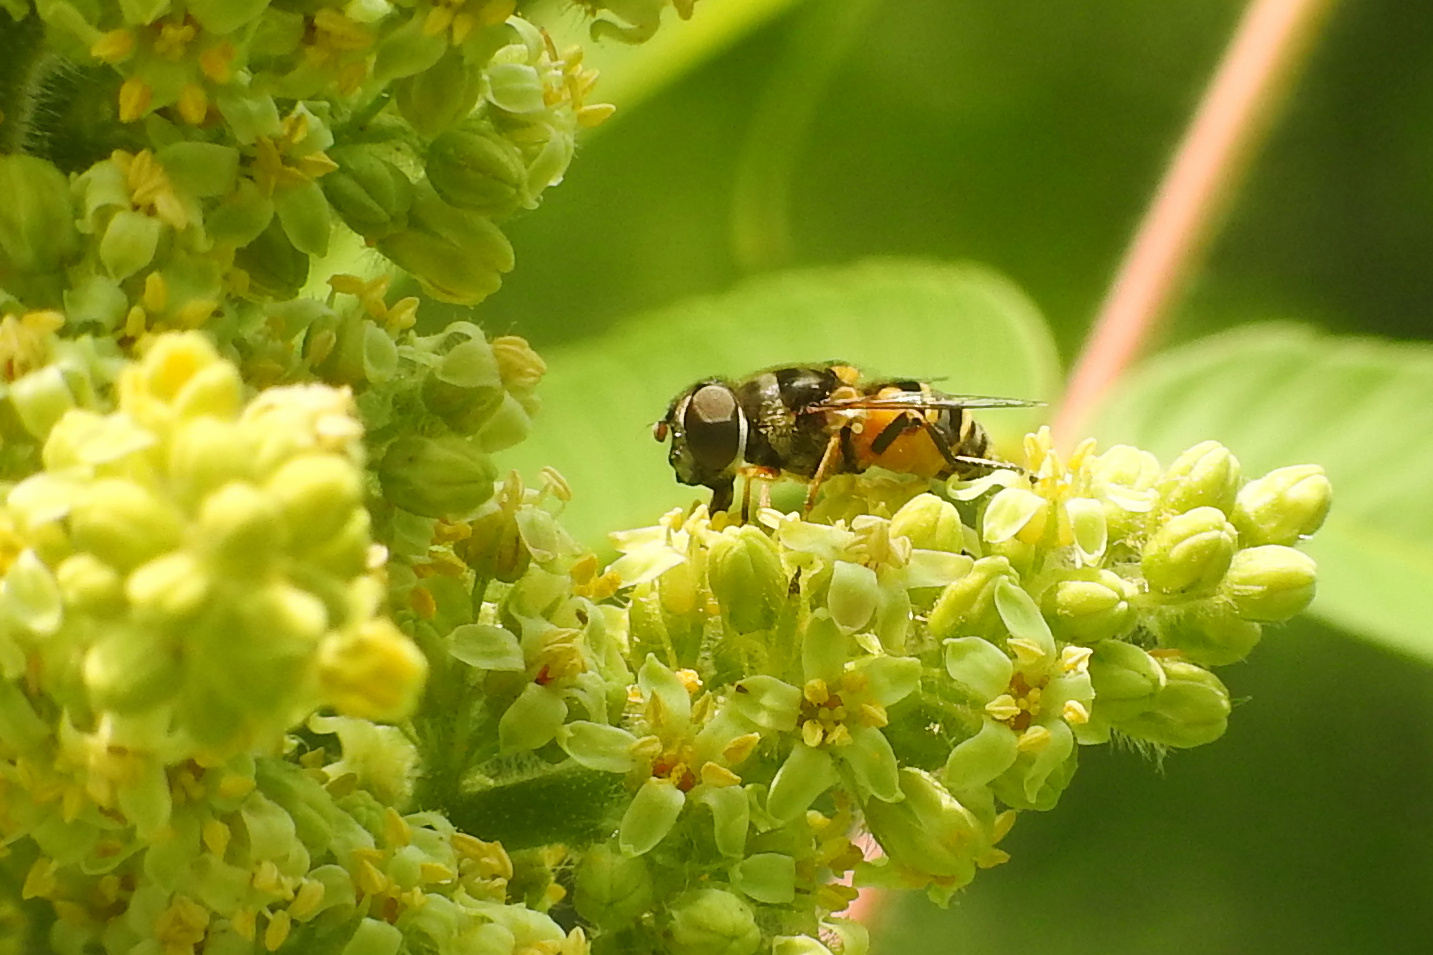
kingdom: Animalia
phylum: Arthropoda
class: Insecta
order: Diptera
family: Syrphidae
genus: Eristalis
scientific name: Eristalis transversa
